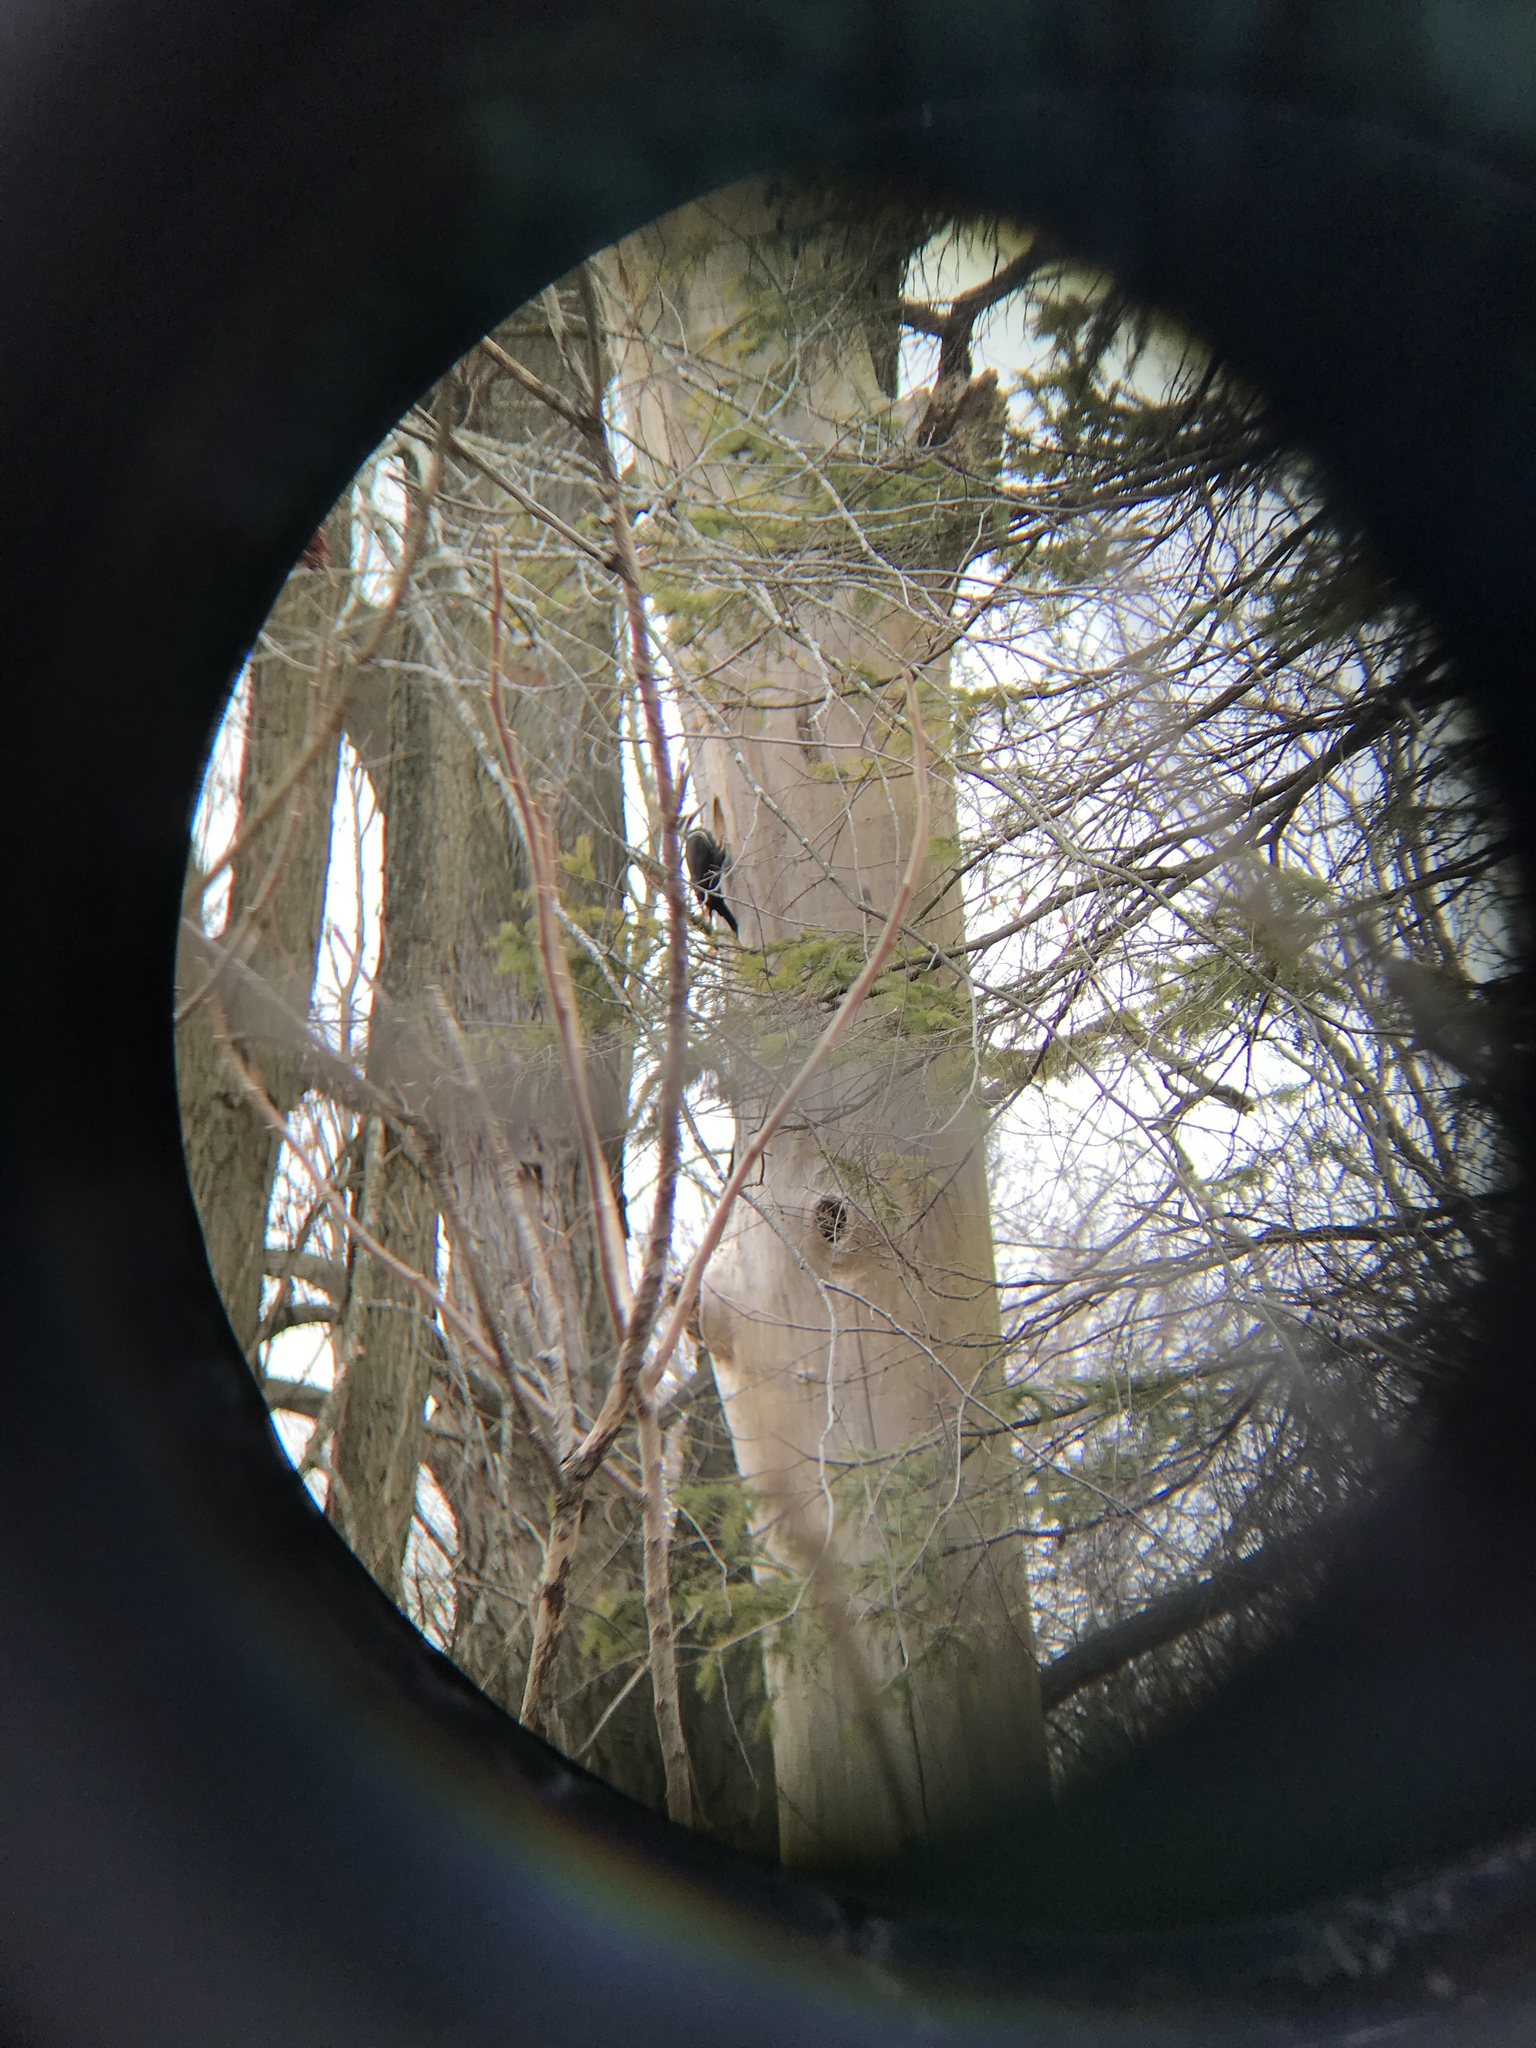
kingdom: Animalia
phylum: Chordata
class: Aves
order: Piciformes
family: Picidae
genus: Dryocopus
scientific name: Dryocopus pileatus
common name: Pileated woodpecker
